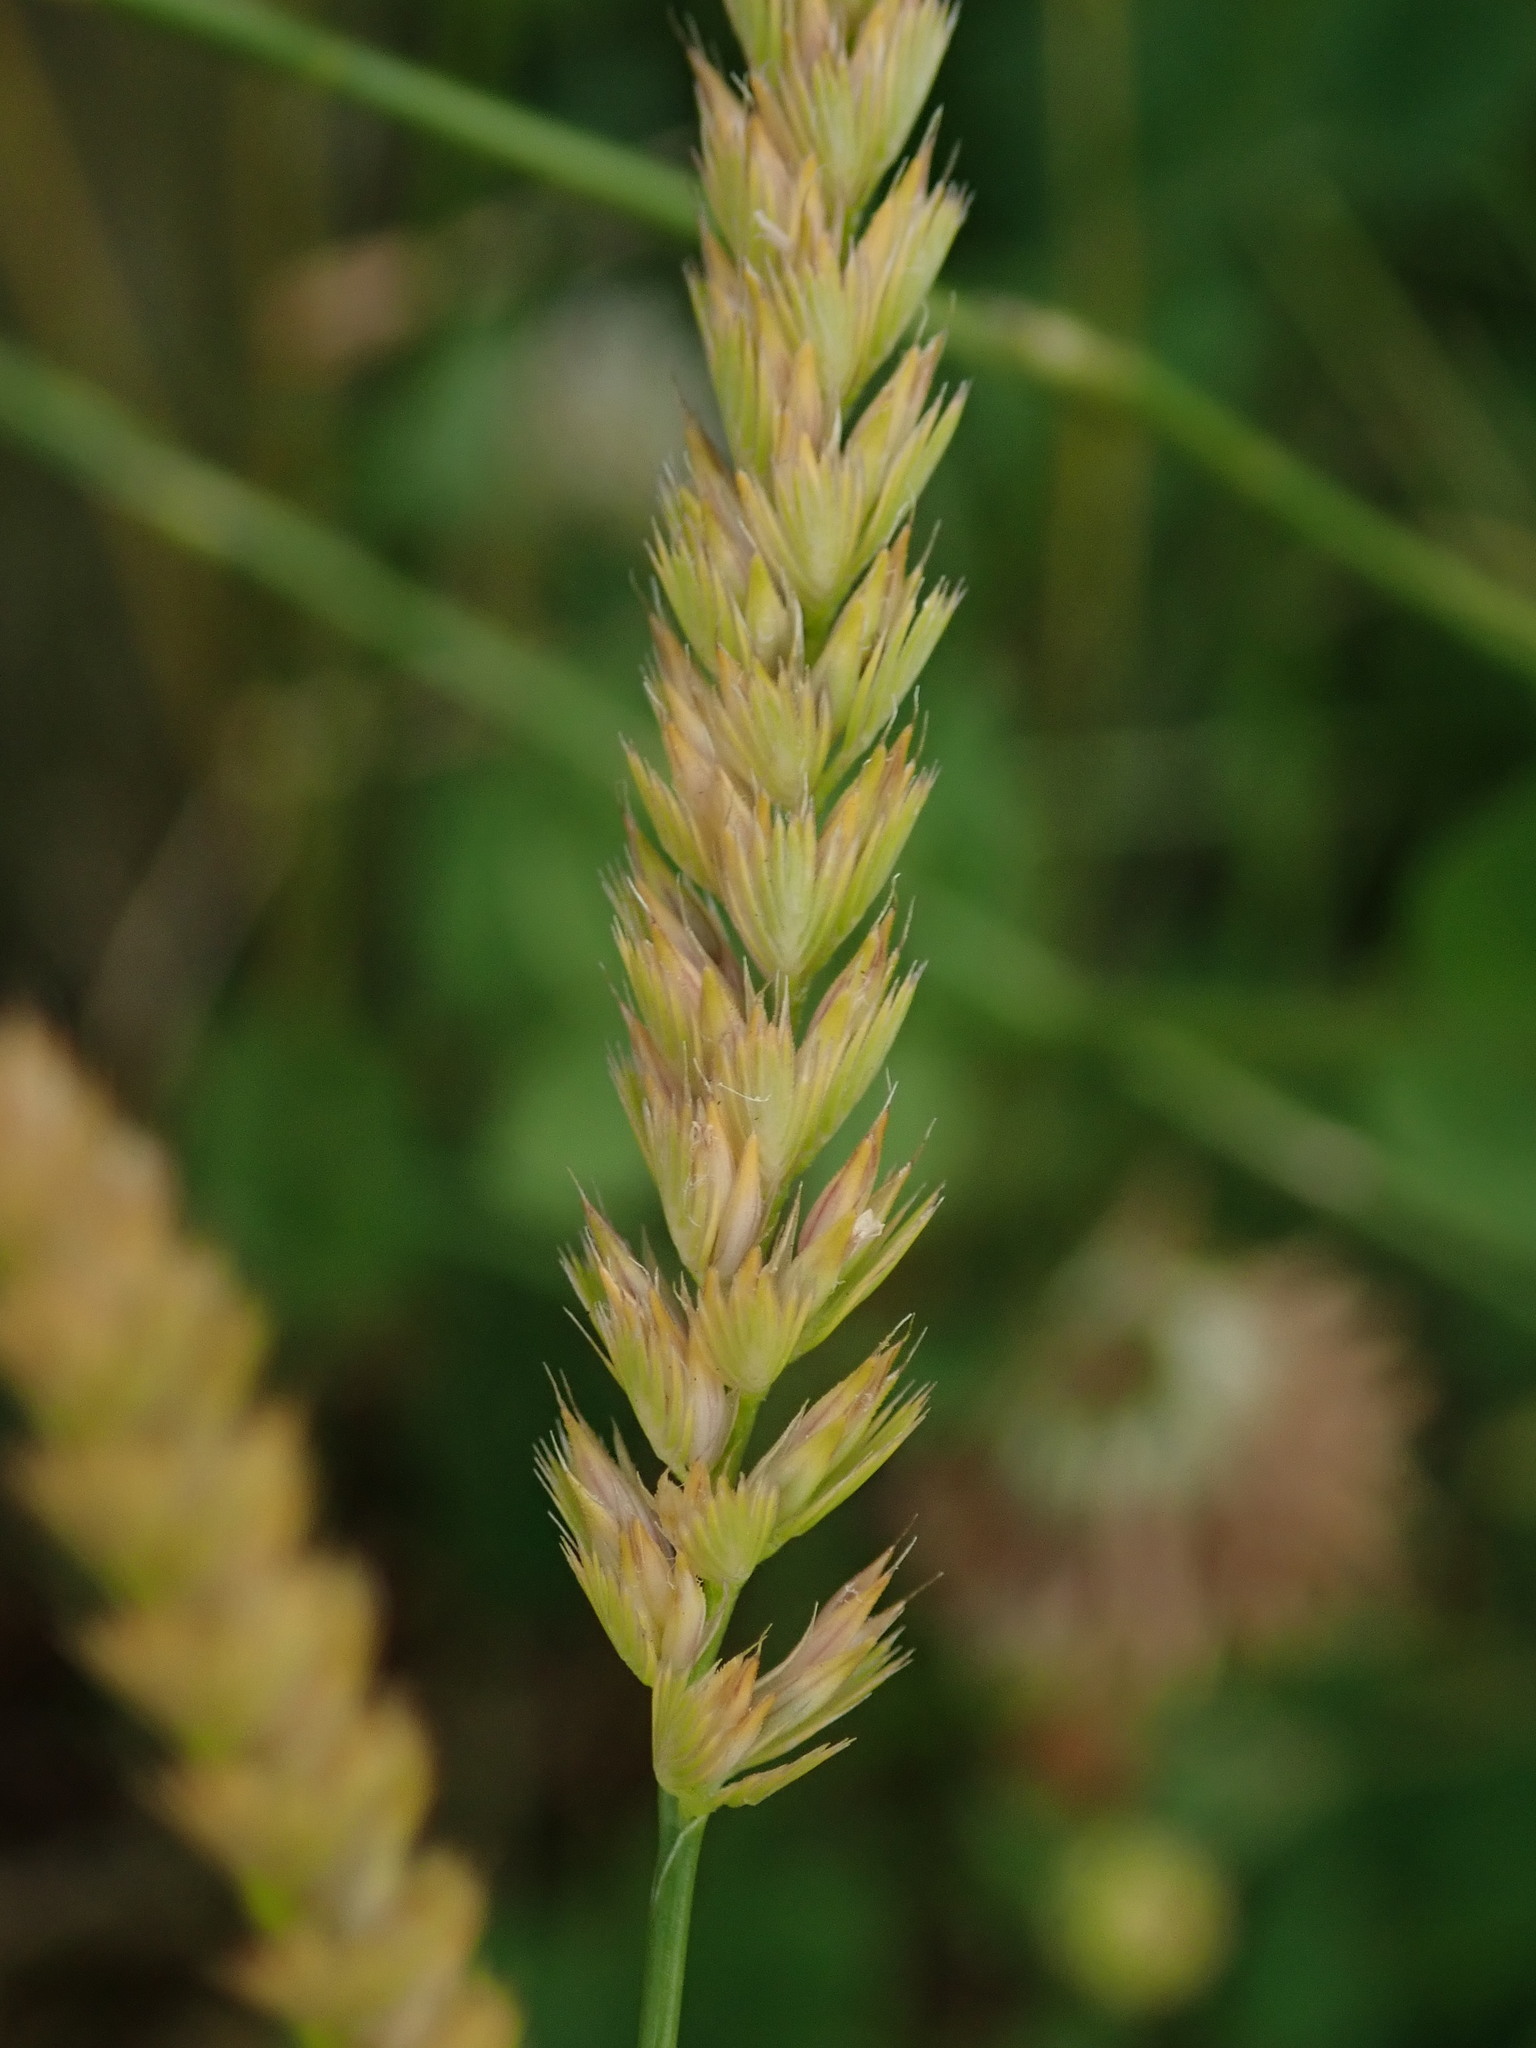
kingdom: Plantae
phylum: Tracheophyta
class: Liliopsida
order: Poales
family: Poaceae
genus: Cynosurus
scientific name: Cynosurus cristatus
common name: Crested dog's-tail
